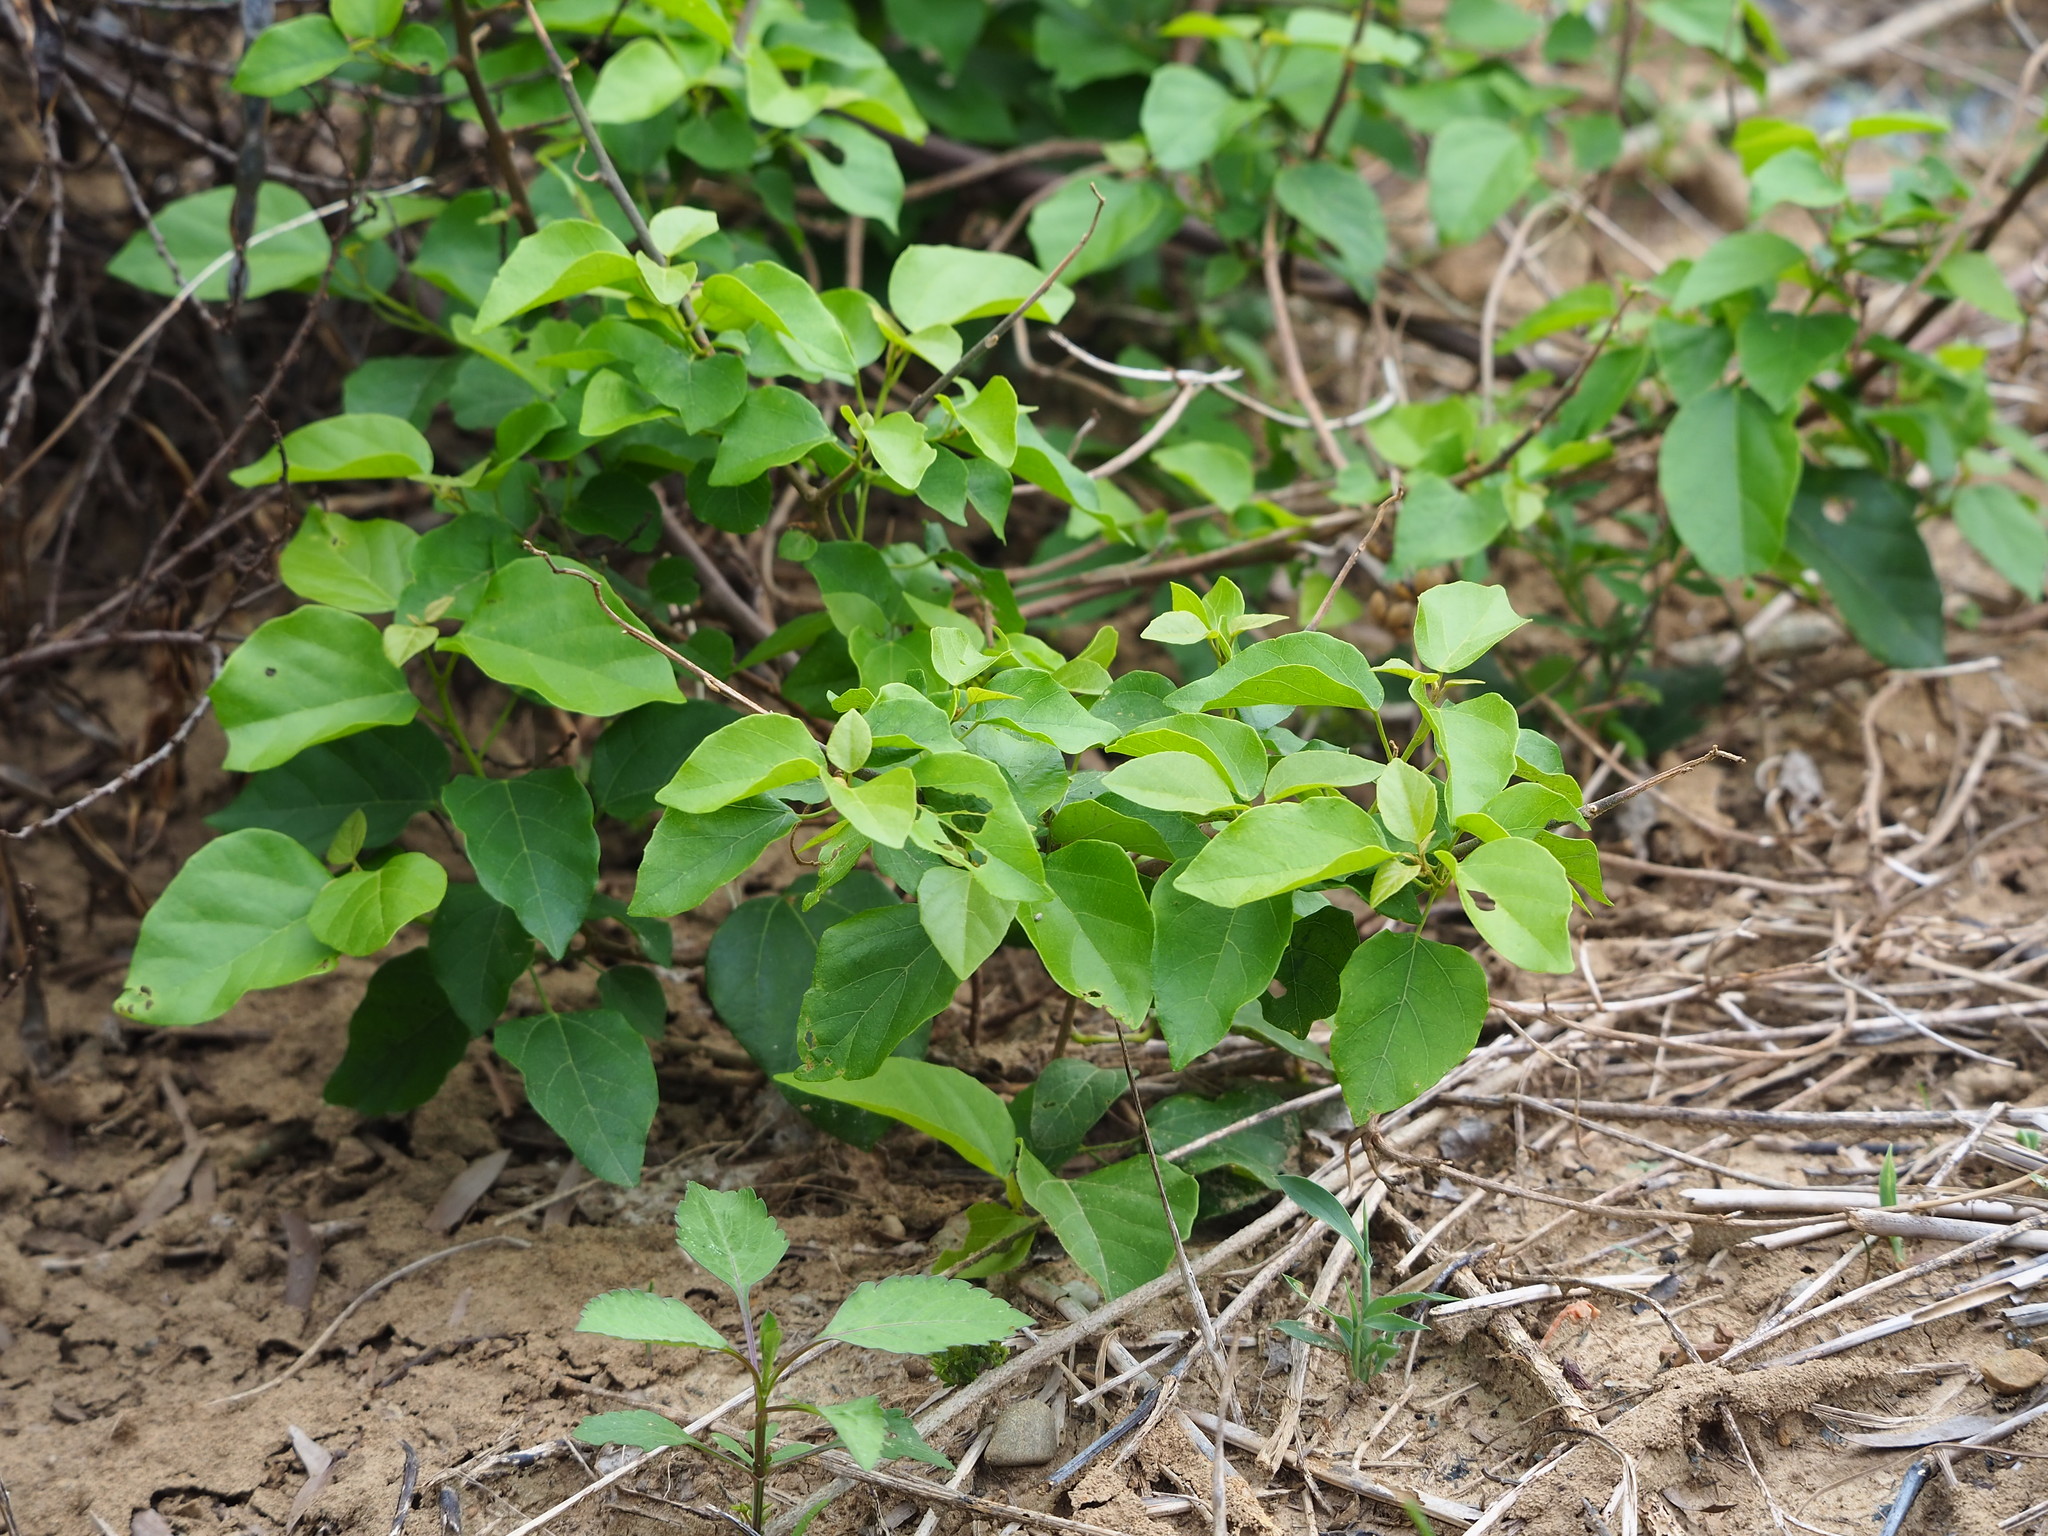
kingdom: Plantae
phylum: Tracheophyta
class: Magnoliopsida
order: Malpighiales
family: Euphorbiaceae
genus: Mallotus
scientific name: Mallotus repandus
